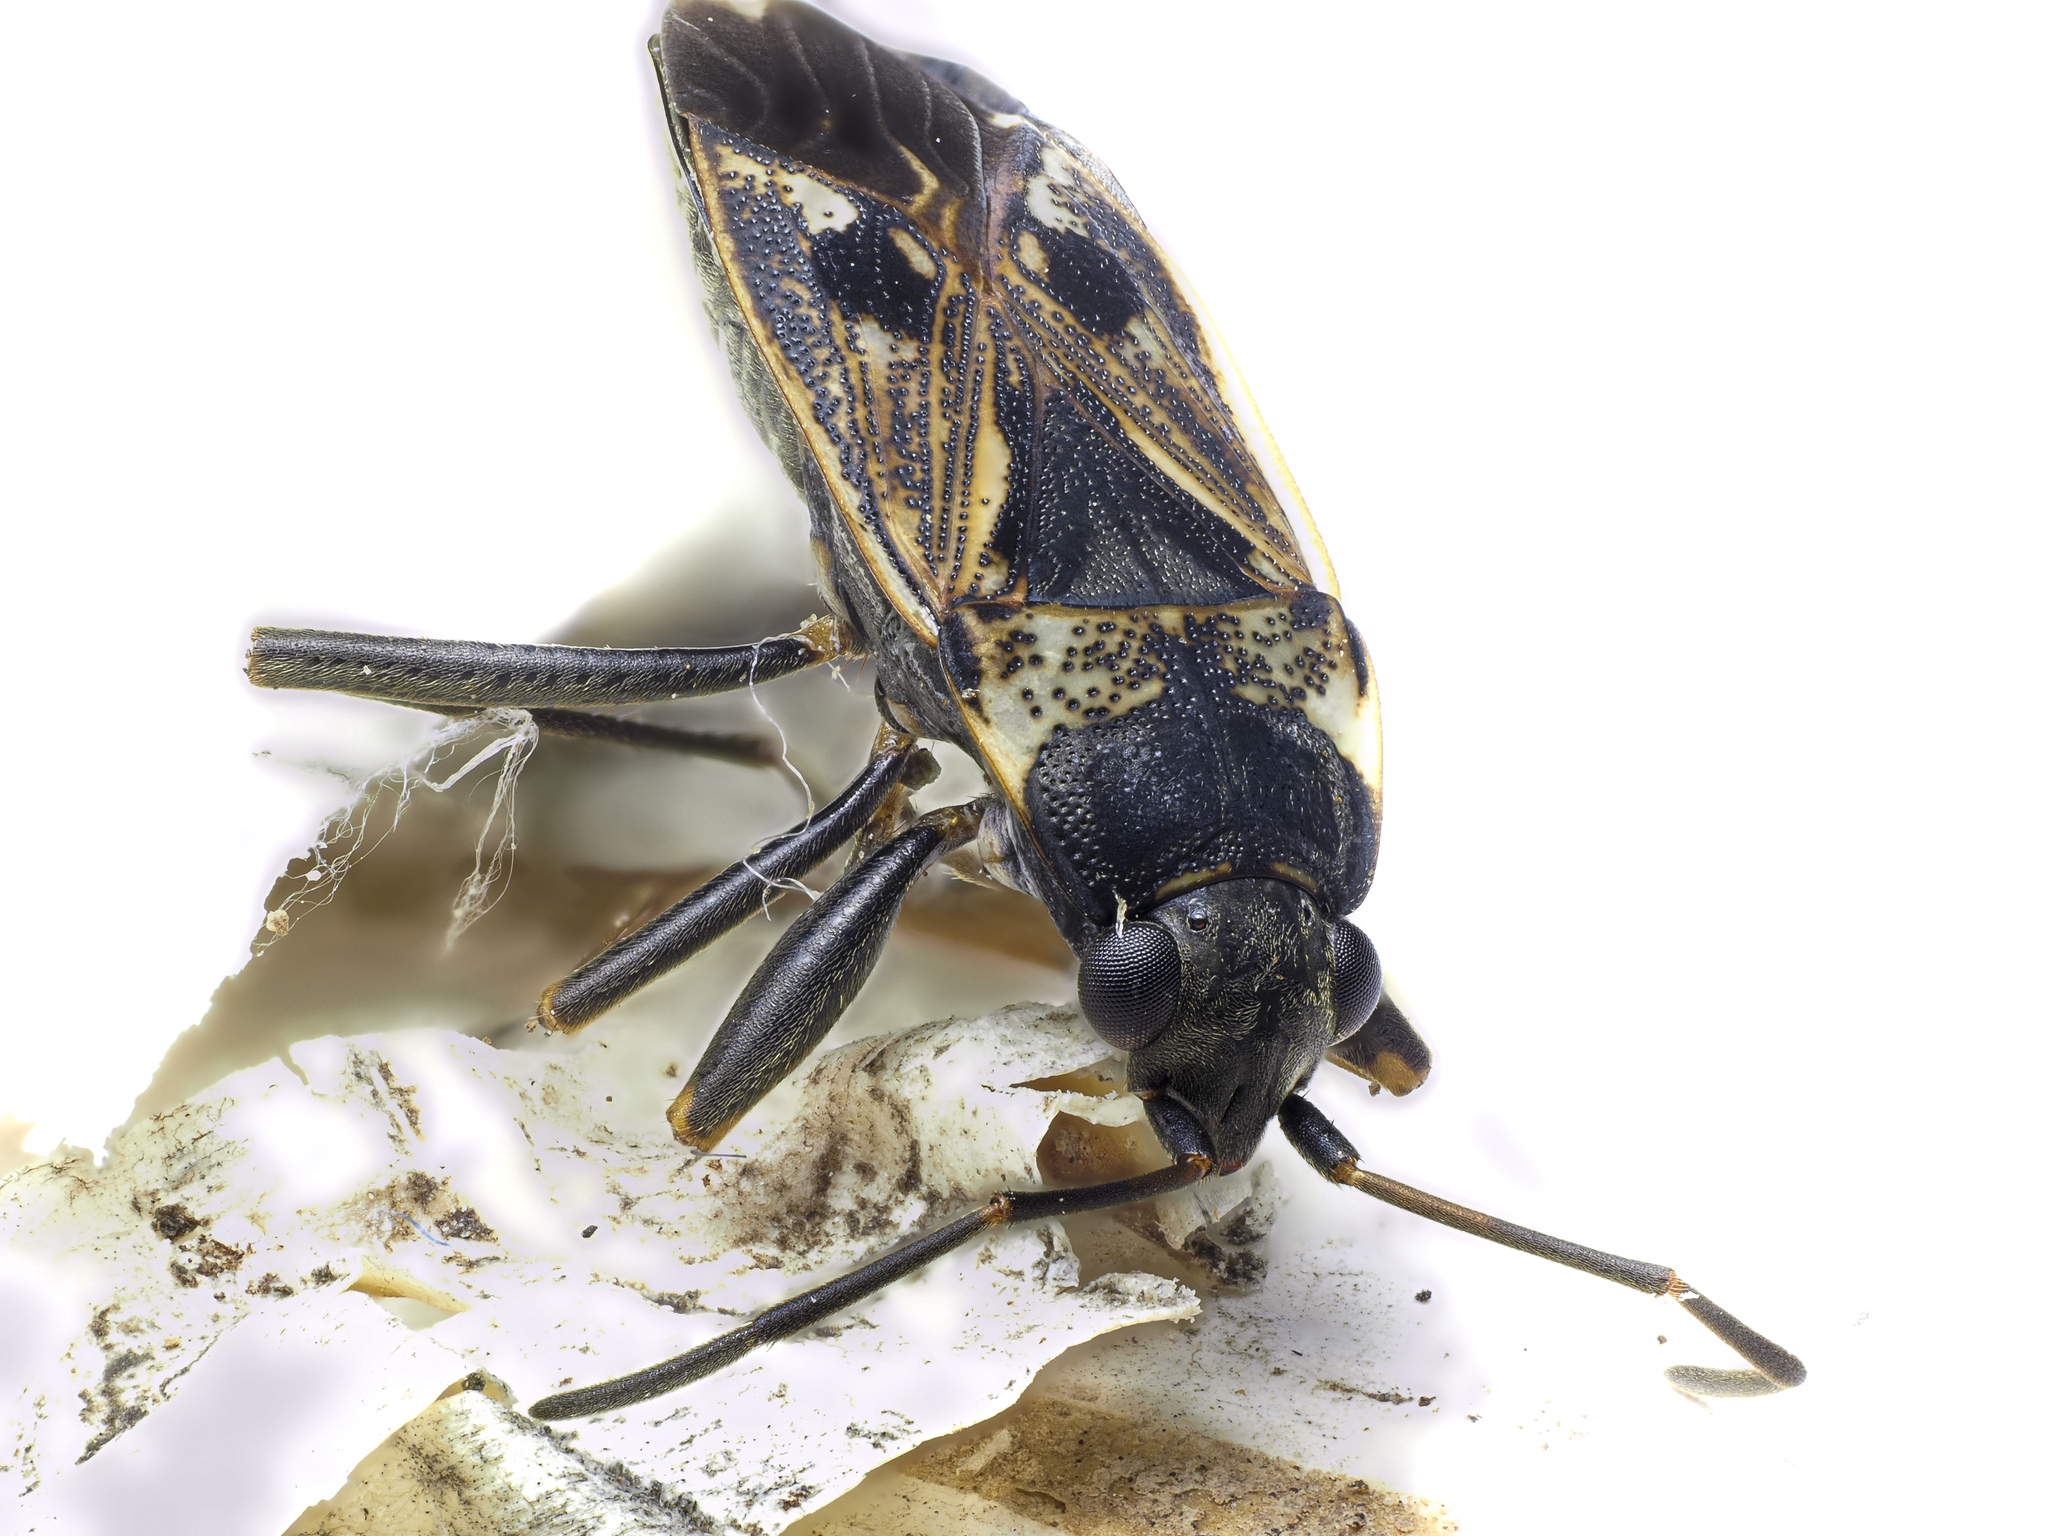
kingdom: Animalia
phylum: Arthropoda
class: Insecta
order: Hemiptera
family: Rhyparochromidae
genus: Rhyparochromus
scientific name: Rhyparochromus vulgaris
